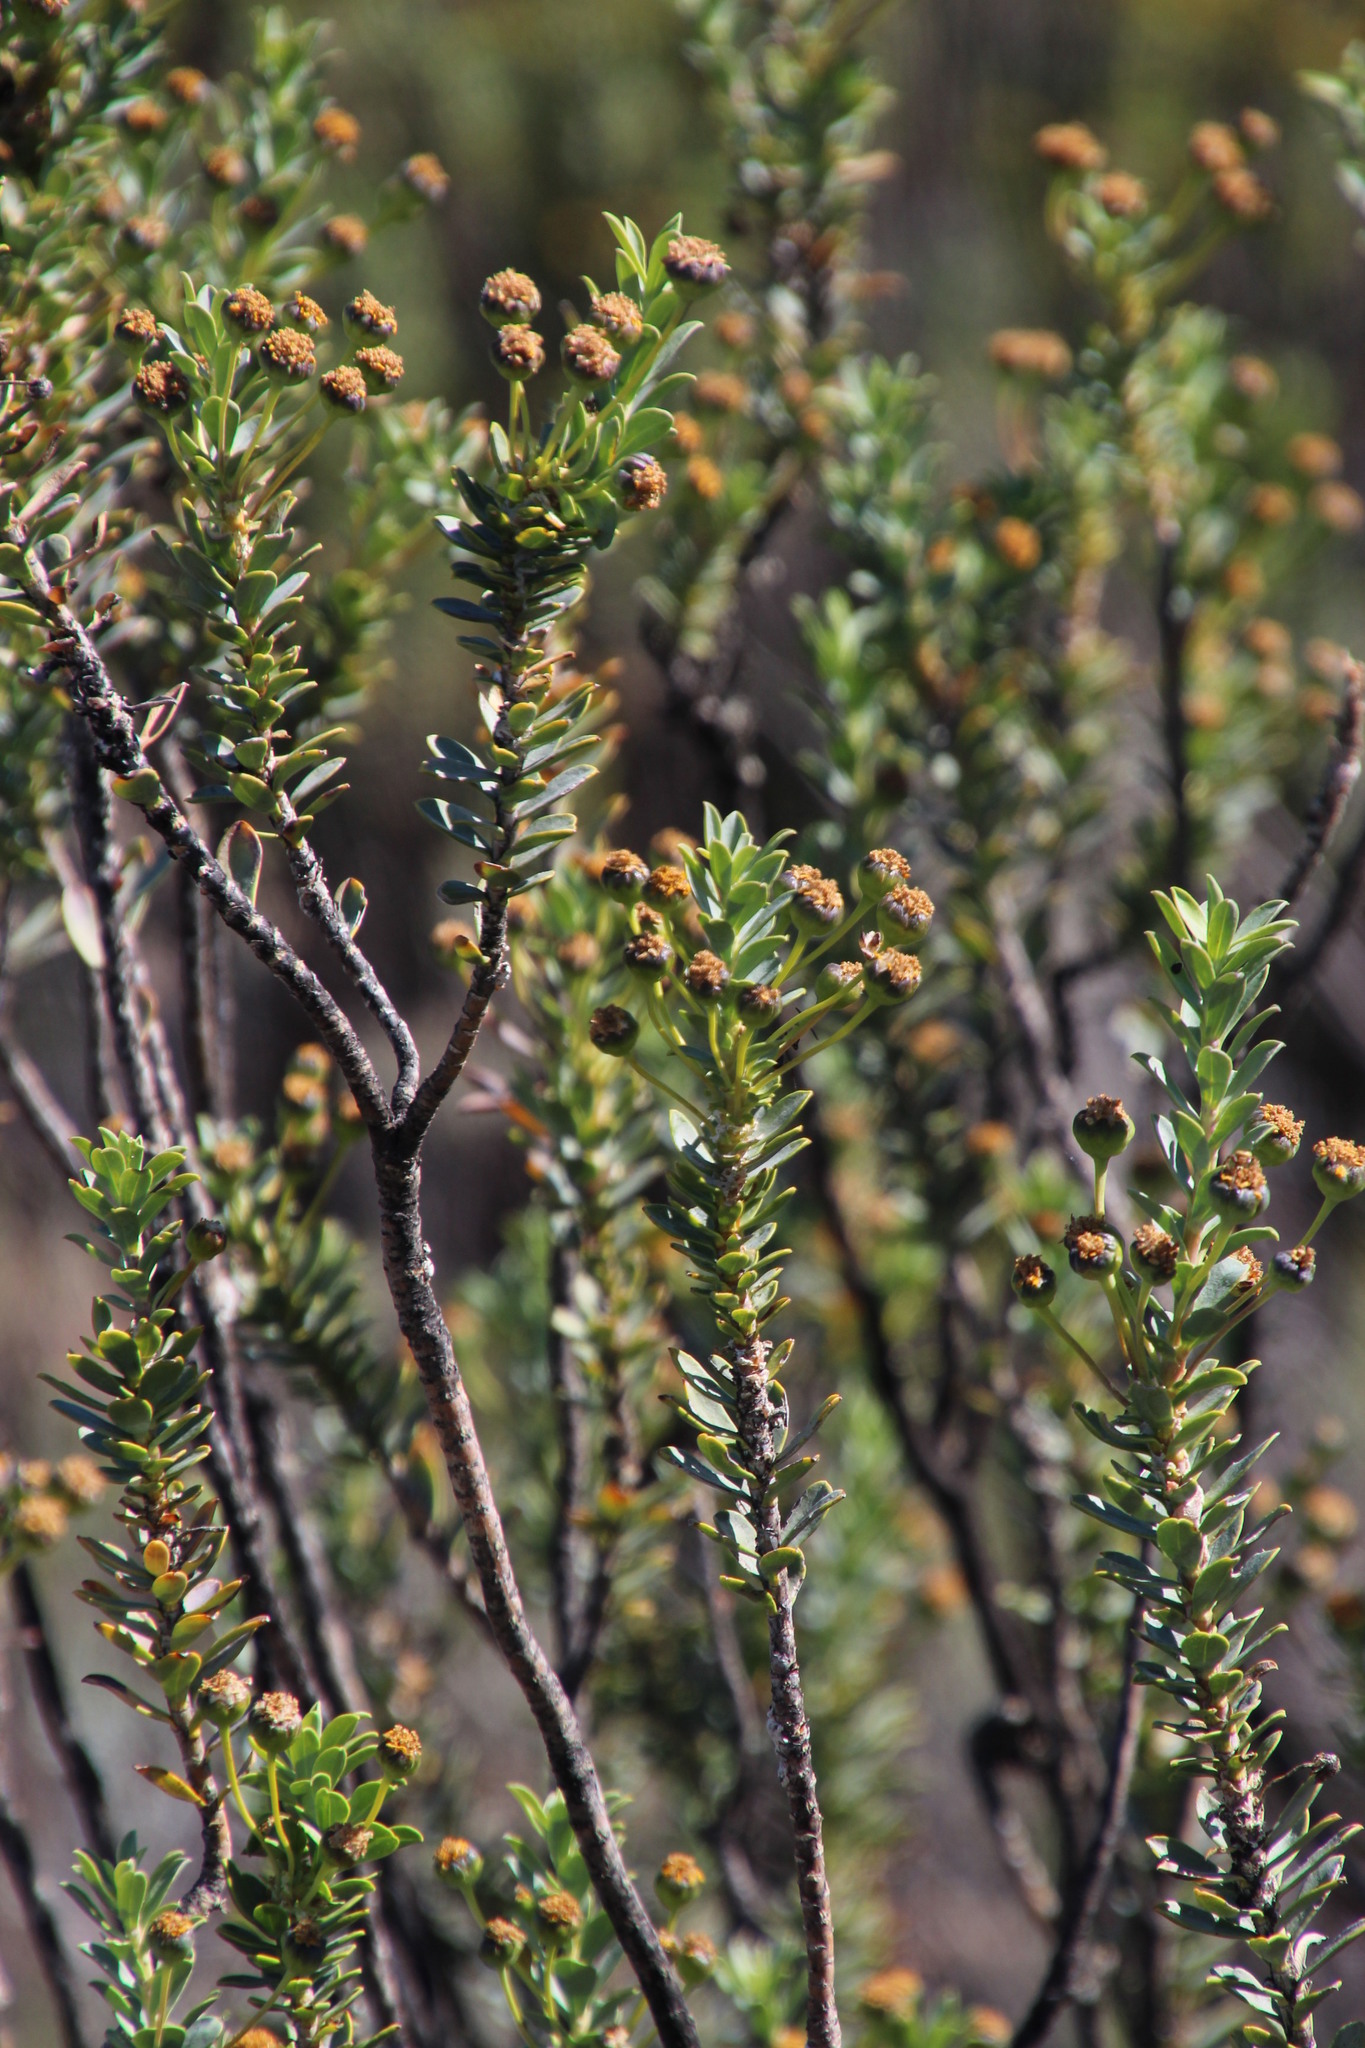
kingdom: Plantae
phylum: Tracheophyta
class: Magnoliopsida
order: Asterales
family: Asteraceae
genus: Euryops
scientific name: Euryops lateriflorus
